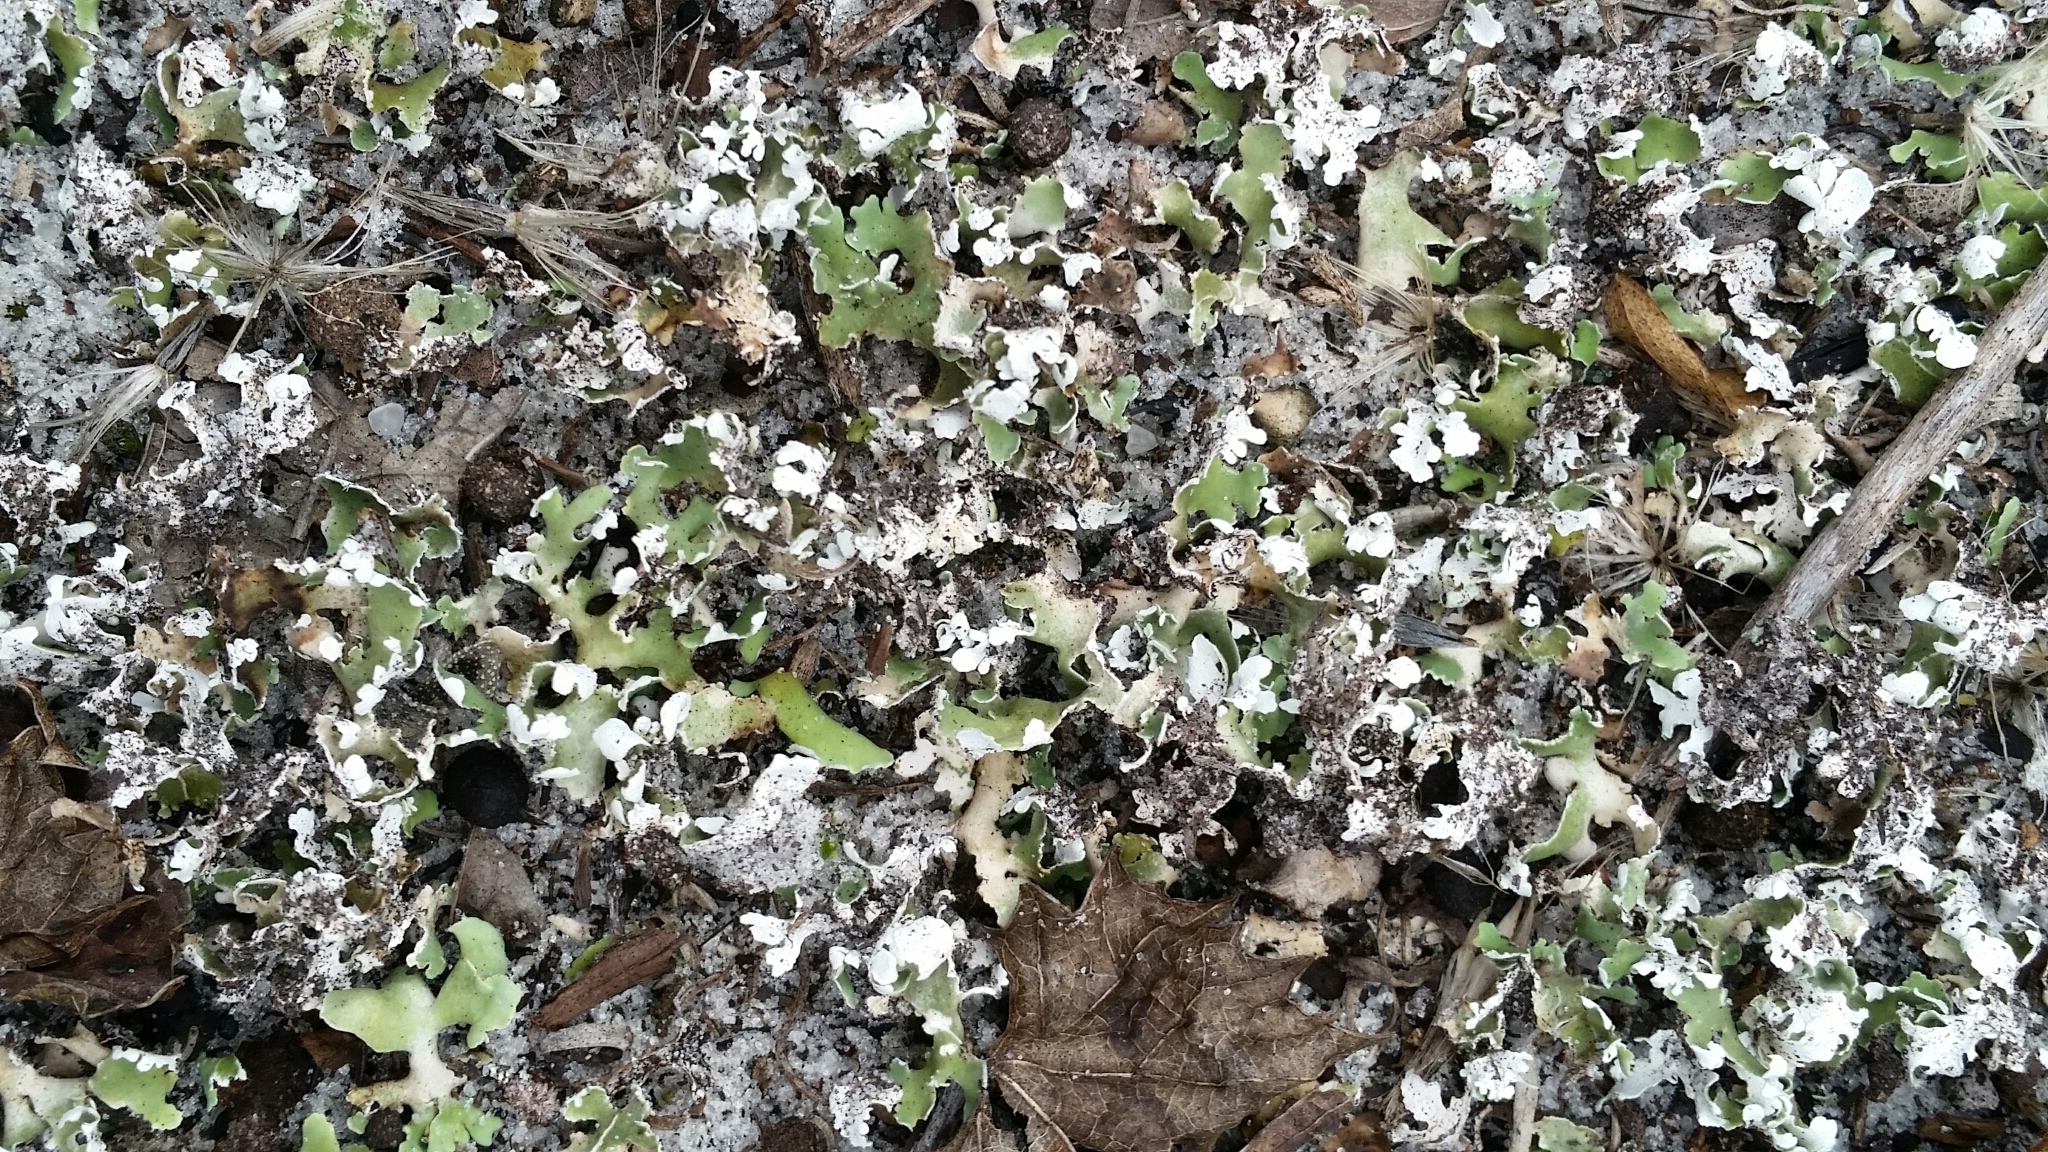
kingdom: Fungi
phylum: Ascomycota
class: Lecanoromycetes
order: Lecanorales
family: Cladoniaceae
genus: Cladonia
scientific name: Cladonia prostrata
